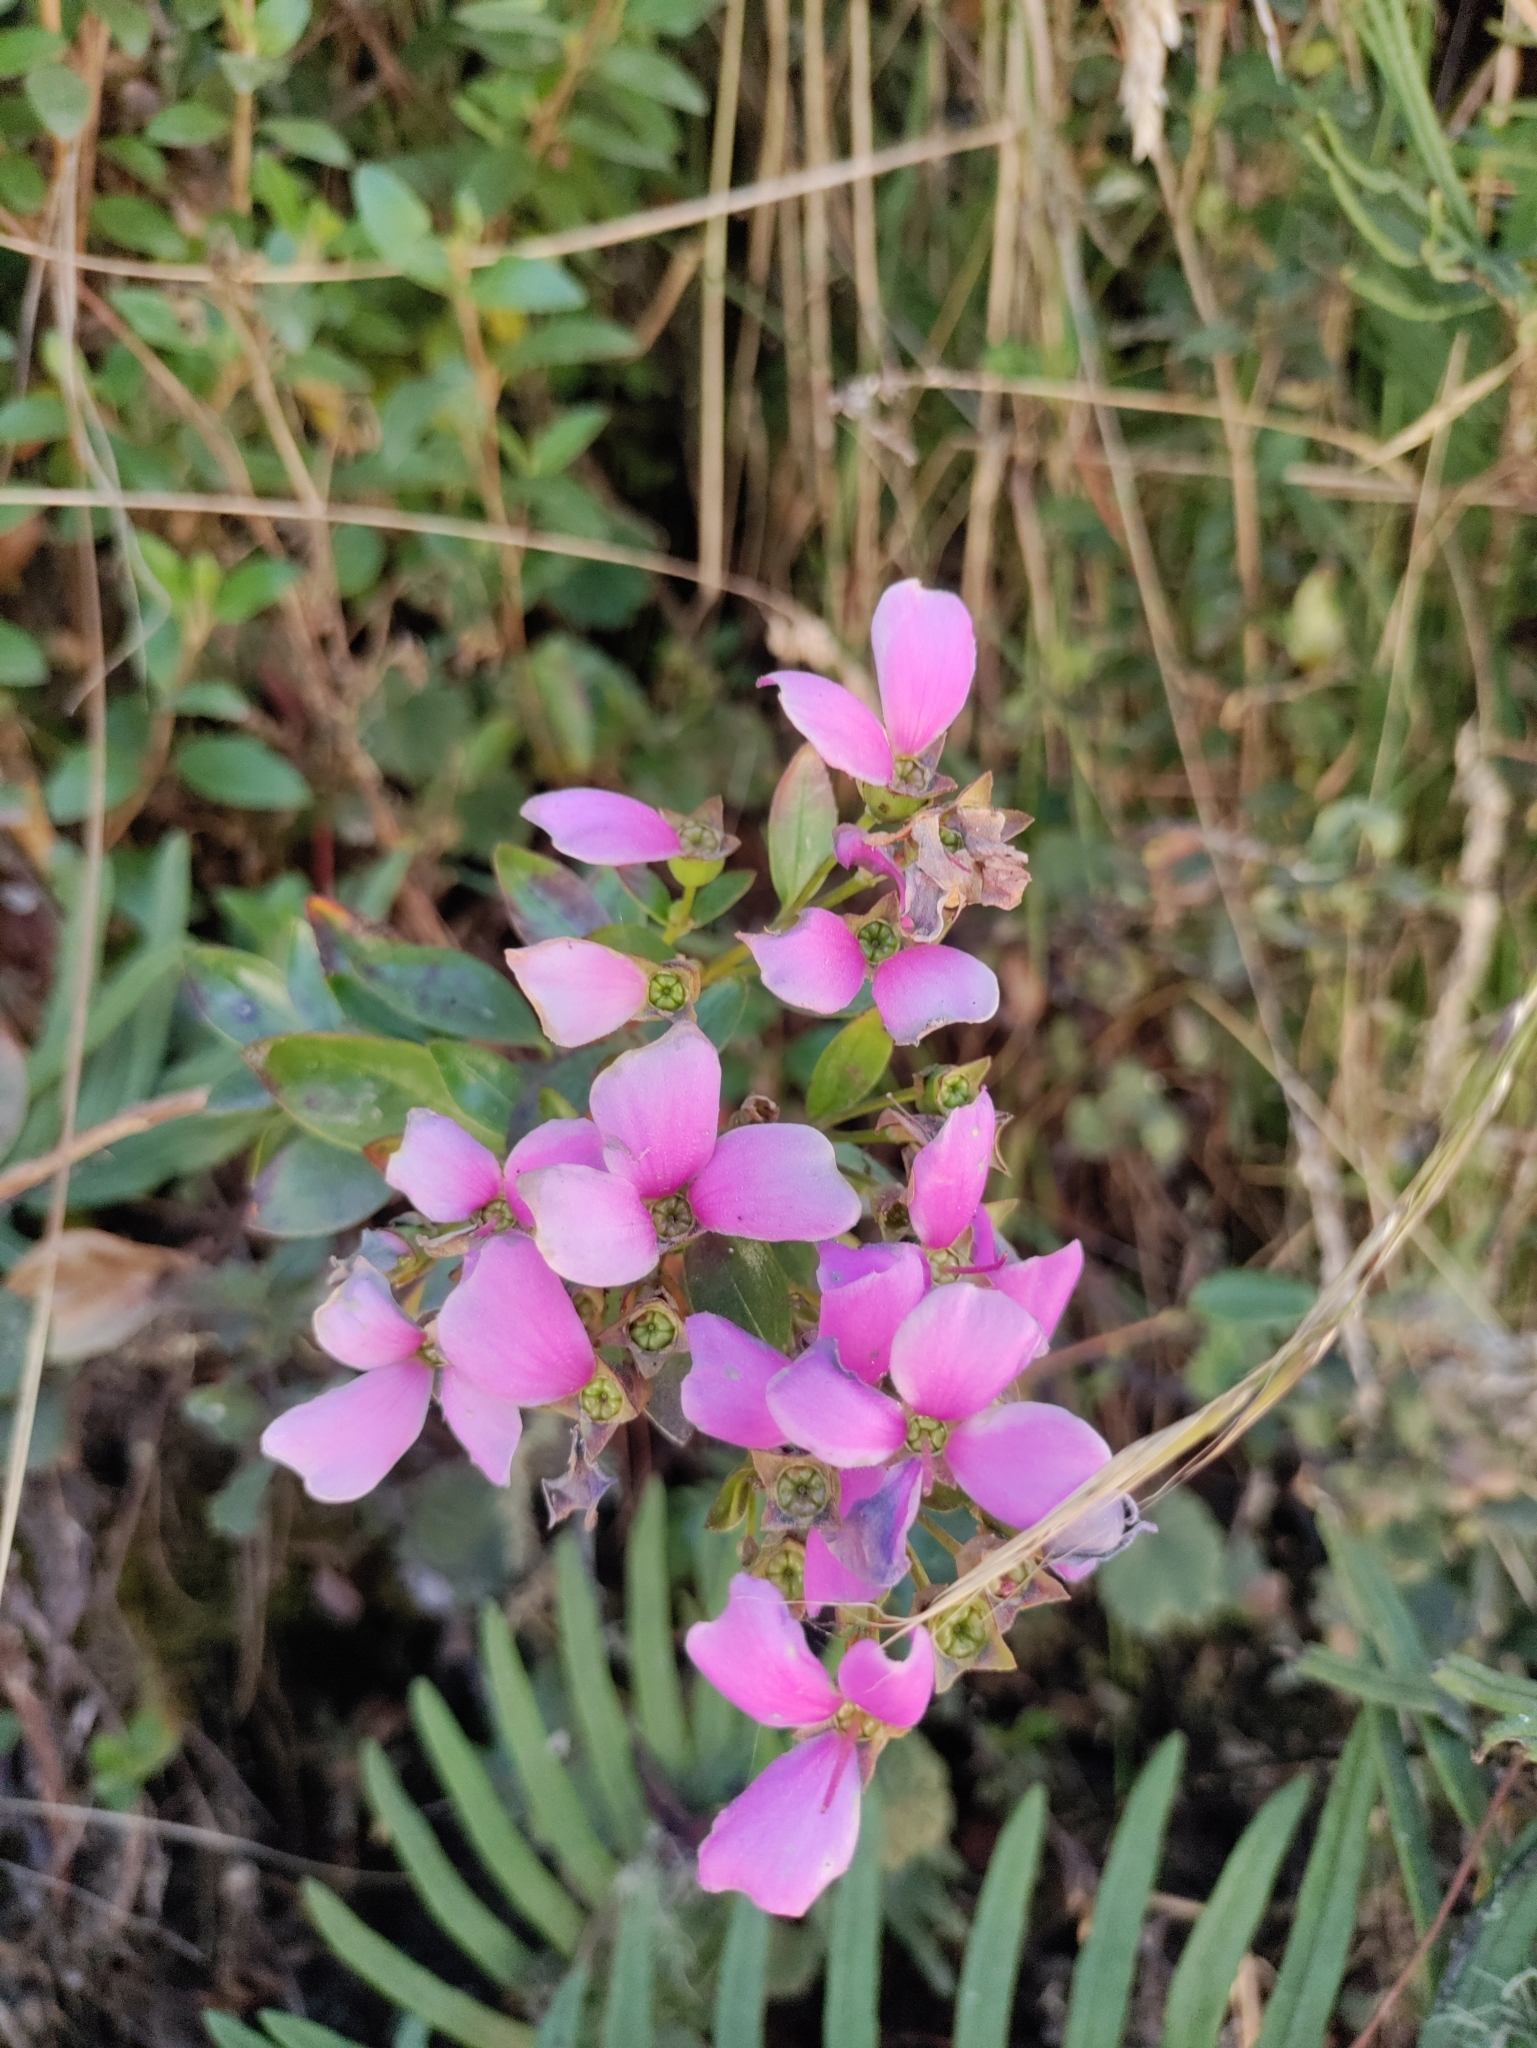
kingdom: Plantae
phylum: Tracheophyta
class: Magnoliopsida
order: Myrtales
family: Melastomataceae
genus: Bucquetia
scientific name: Bucquetia glutinosa
